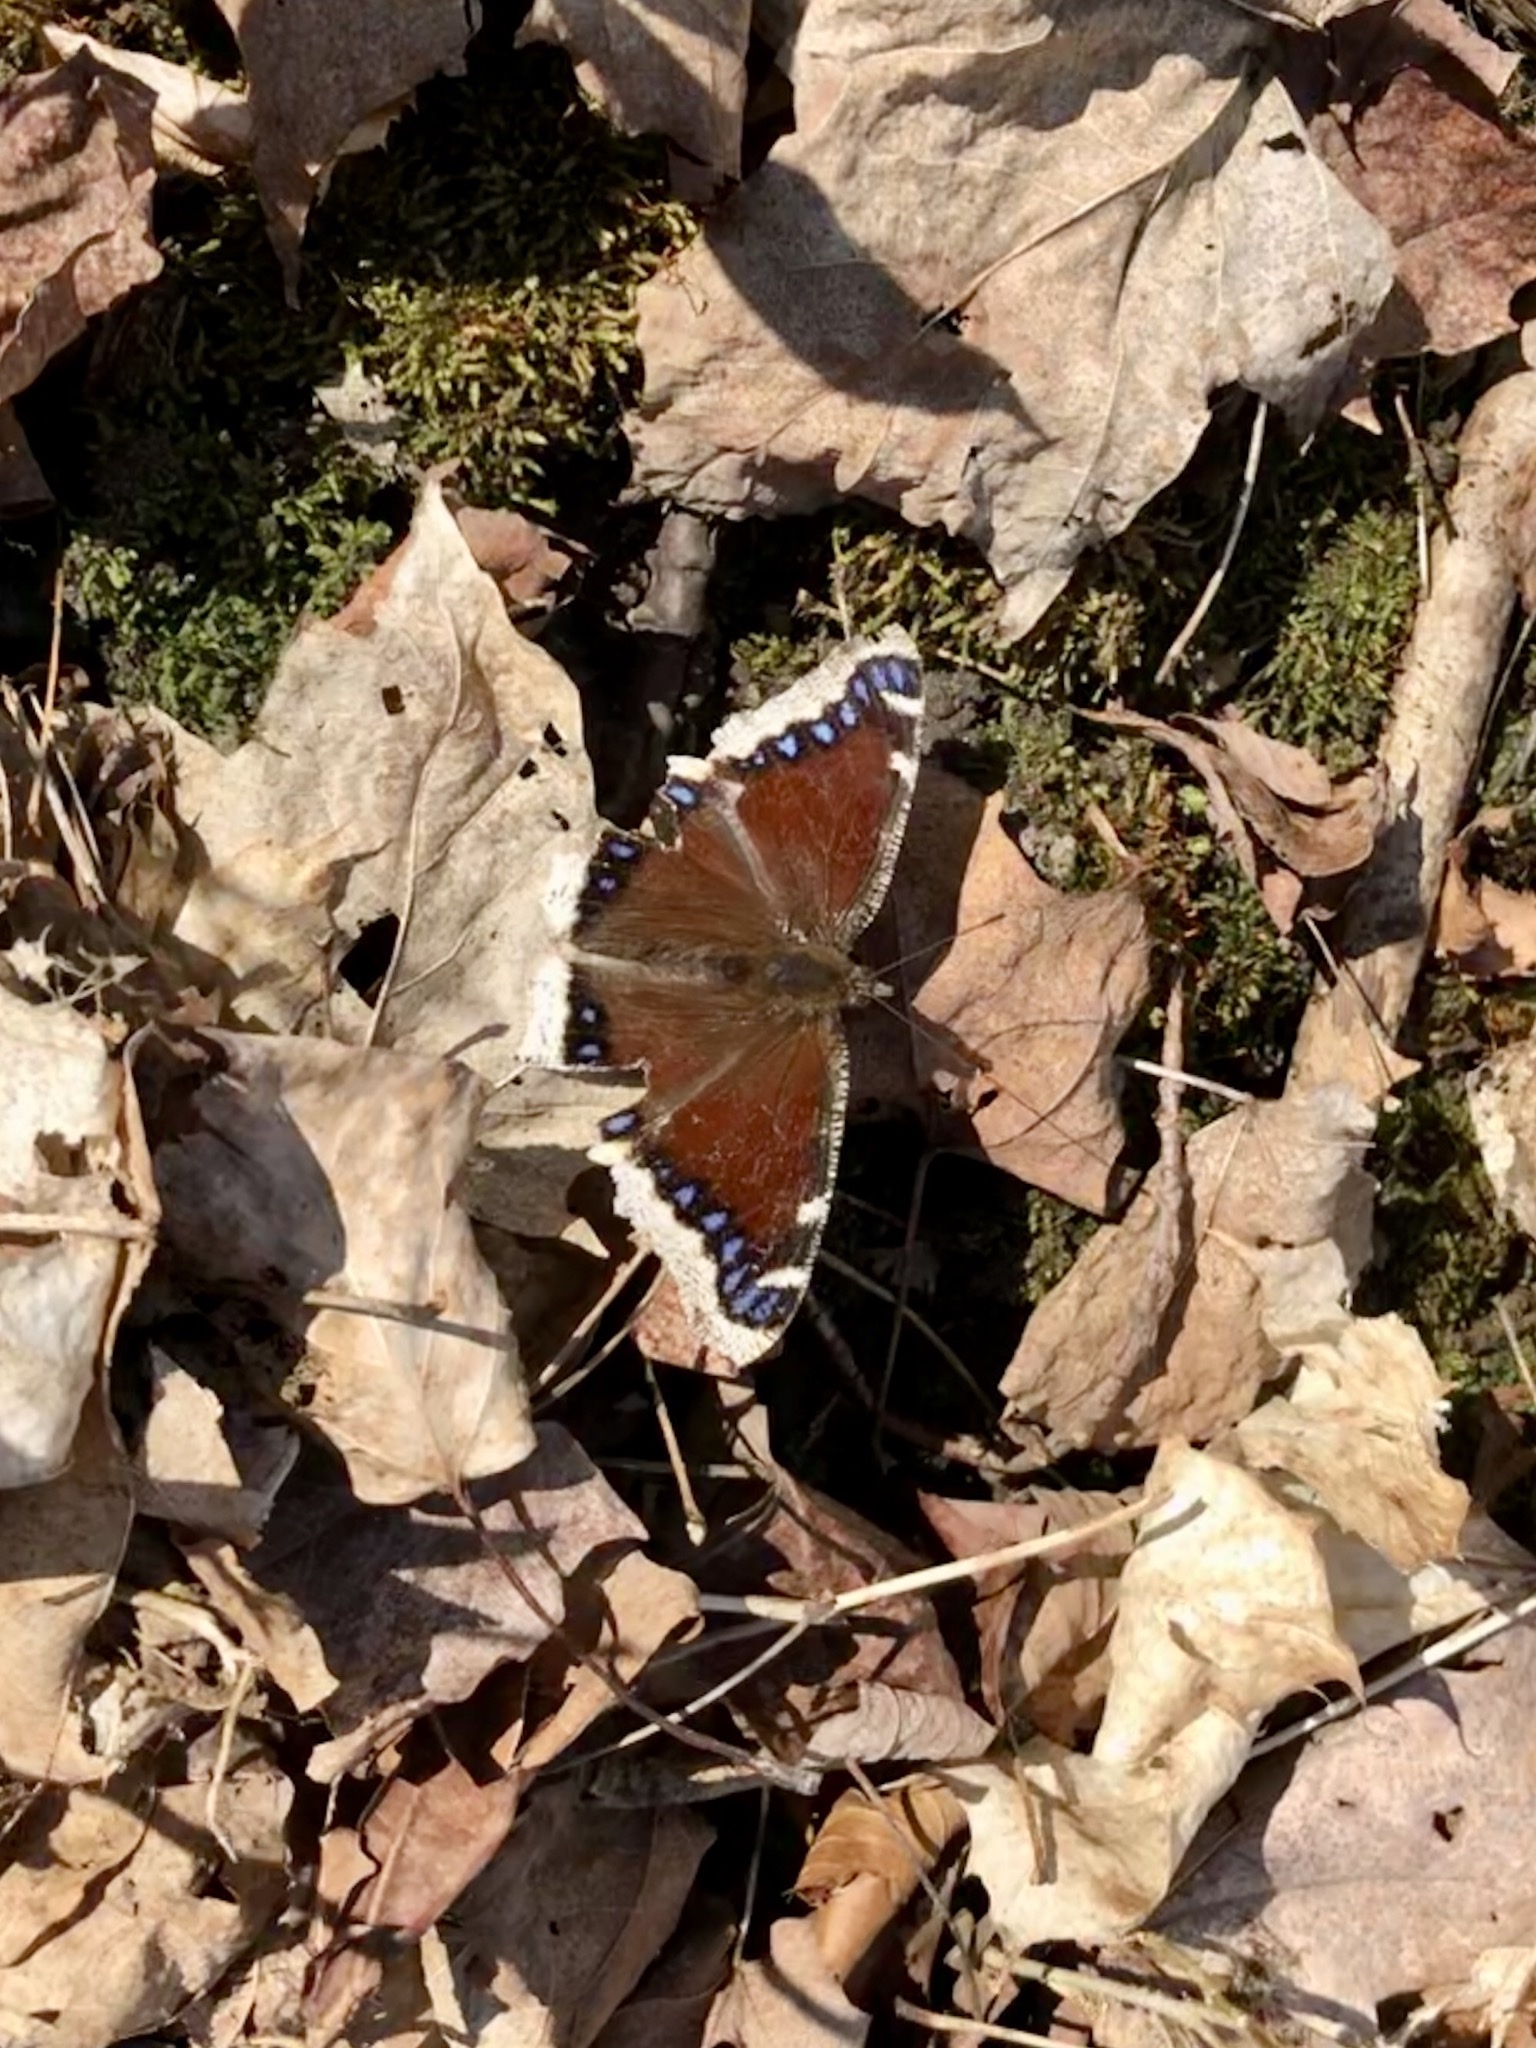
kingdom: Animalia
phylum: Arthropoda
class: Insecta
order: Lepidoptera
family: Nymphalidae
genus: Nymphalis
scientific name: Nymphalis antiopa
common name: Camberwell beauty
